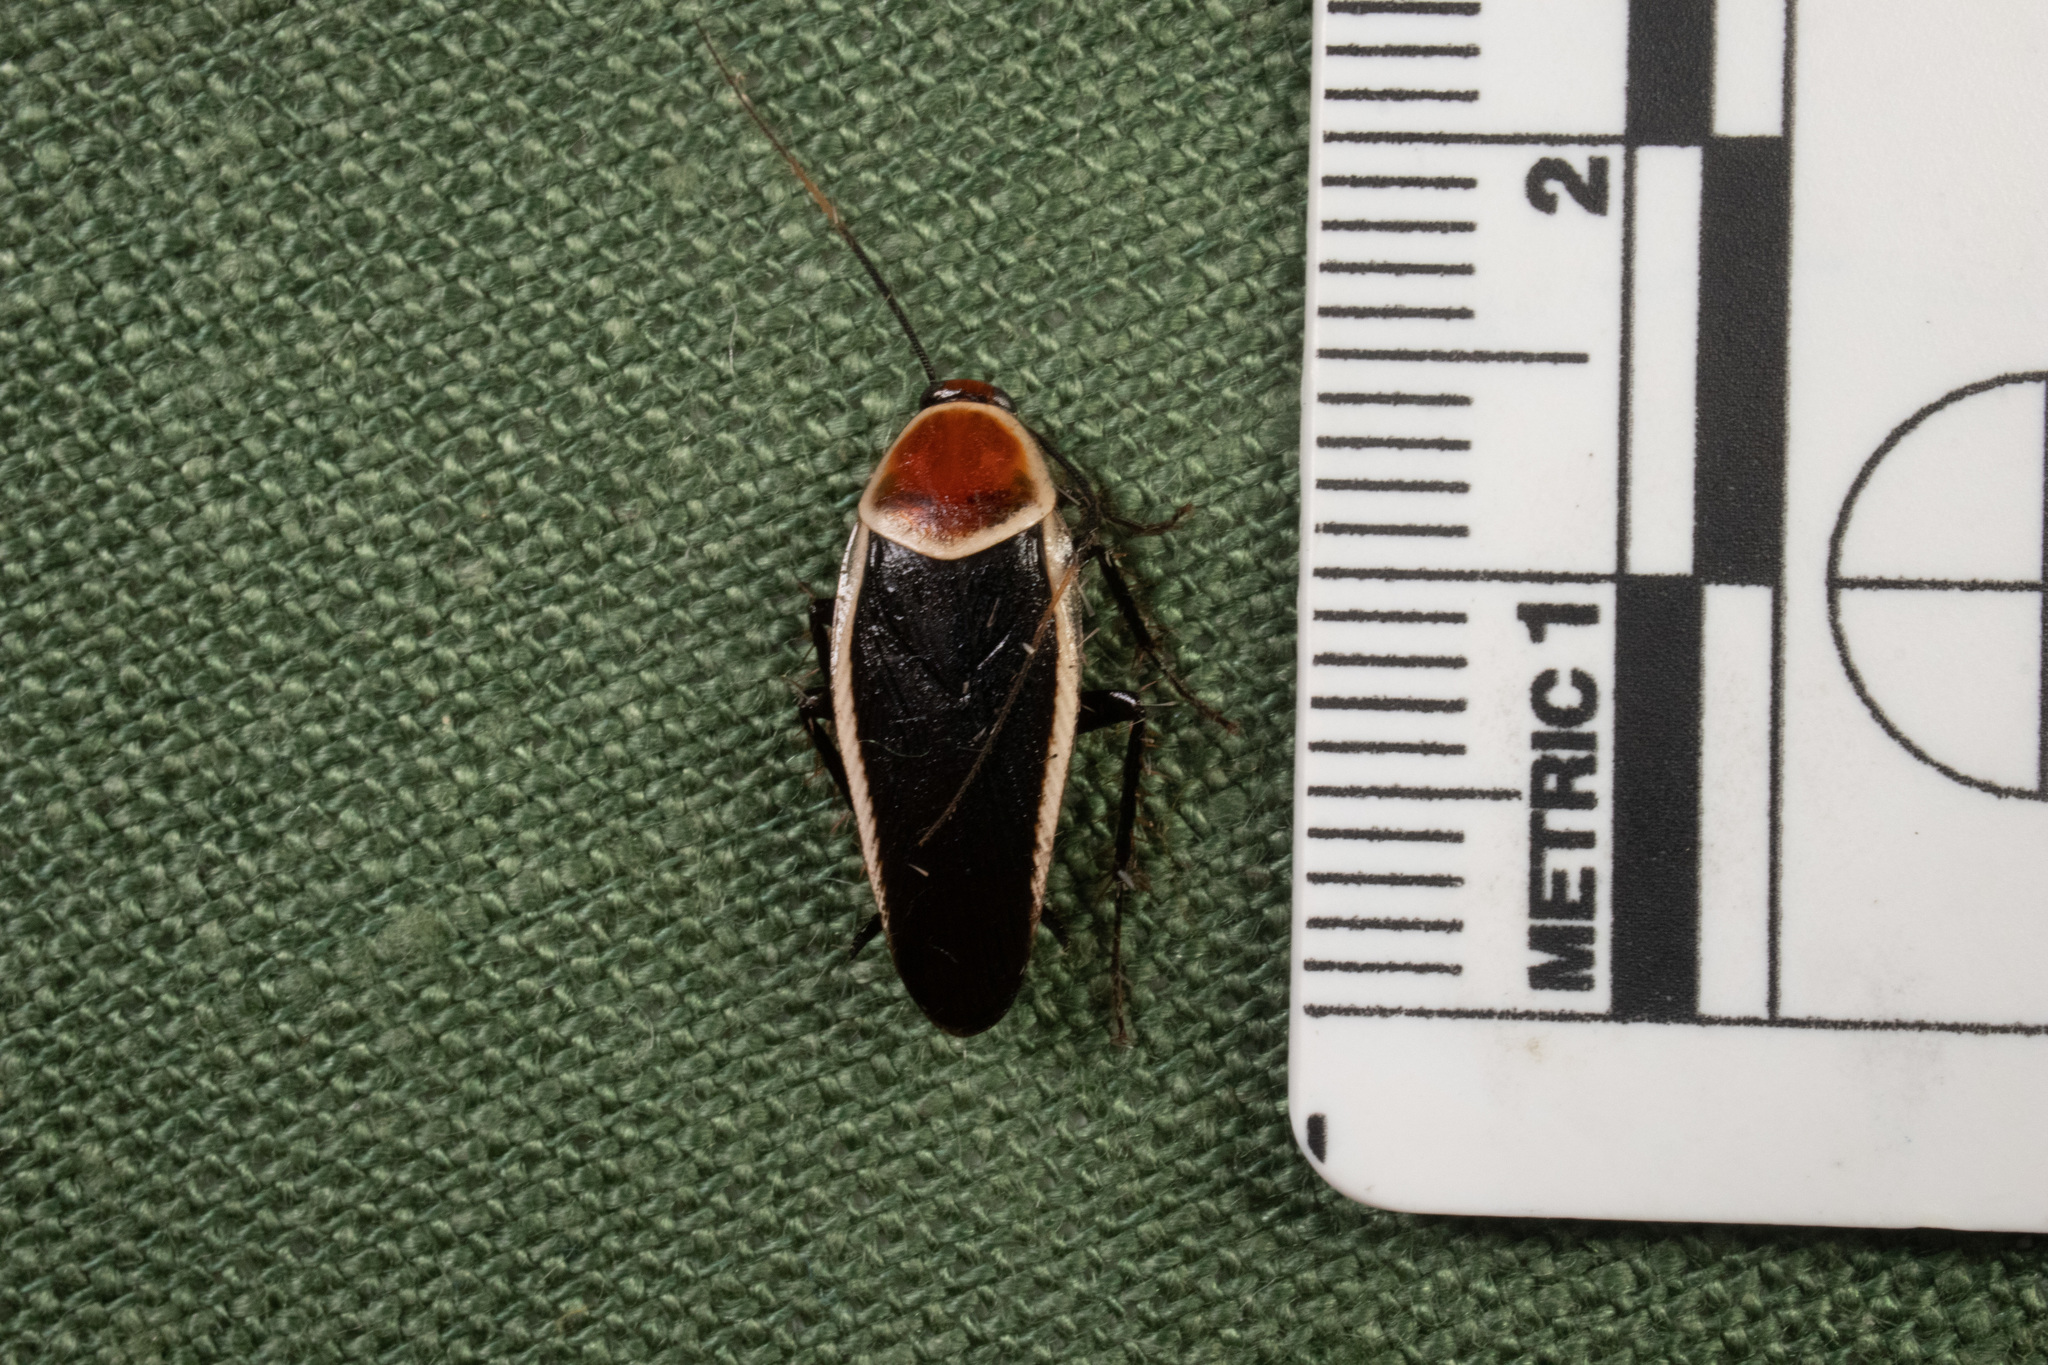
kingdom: Animalia
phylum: Arthropoda
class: Insecta
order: Blattodea
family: Ectobiidae
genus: Pseudomops
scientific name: Pseudomops septentrionalis
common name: Pale-bordered field cockroach
